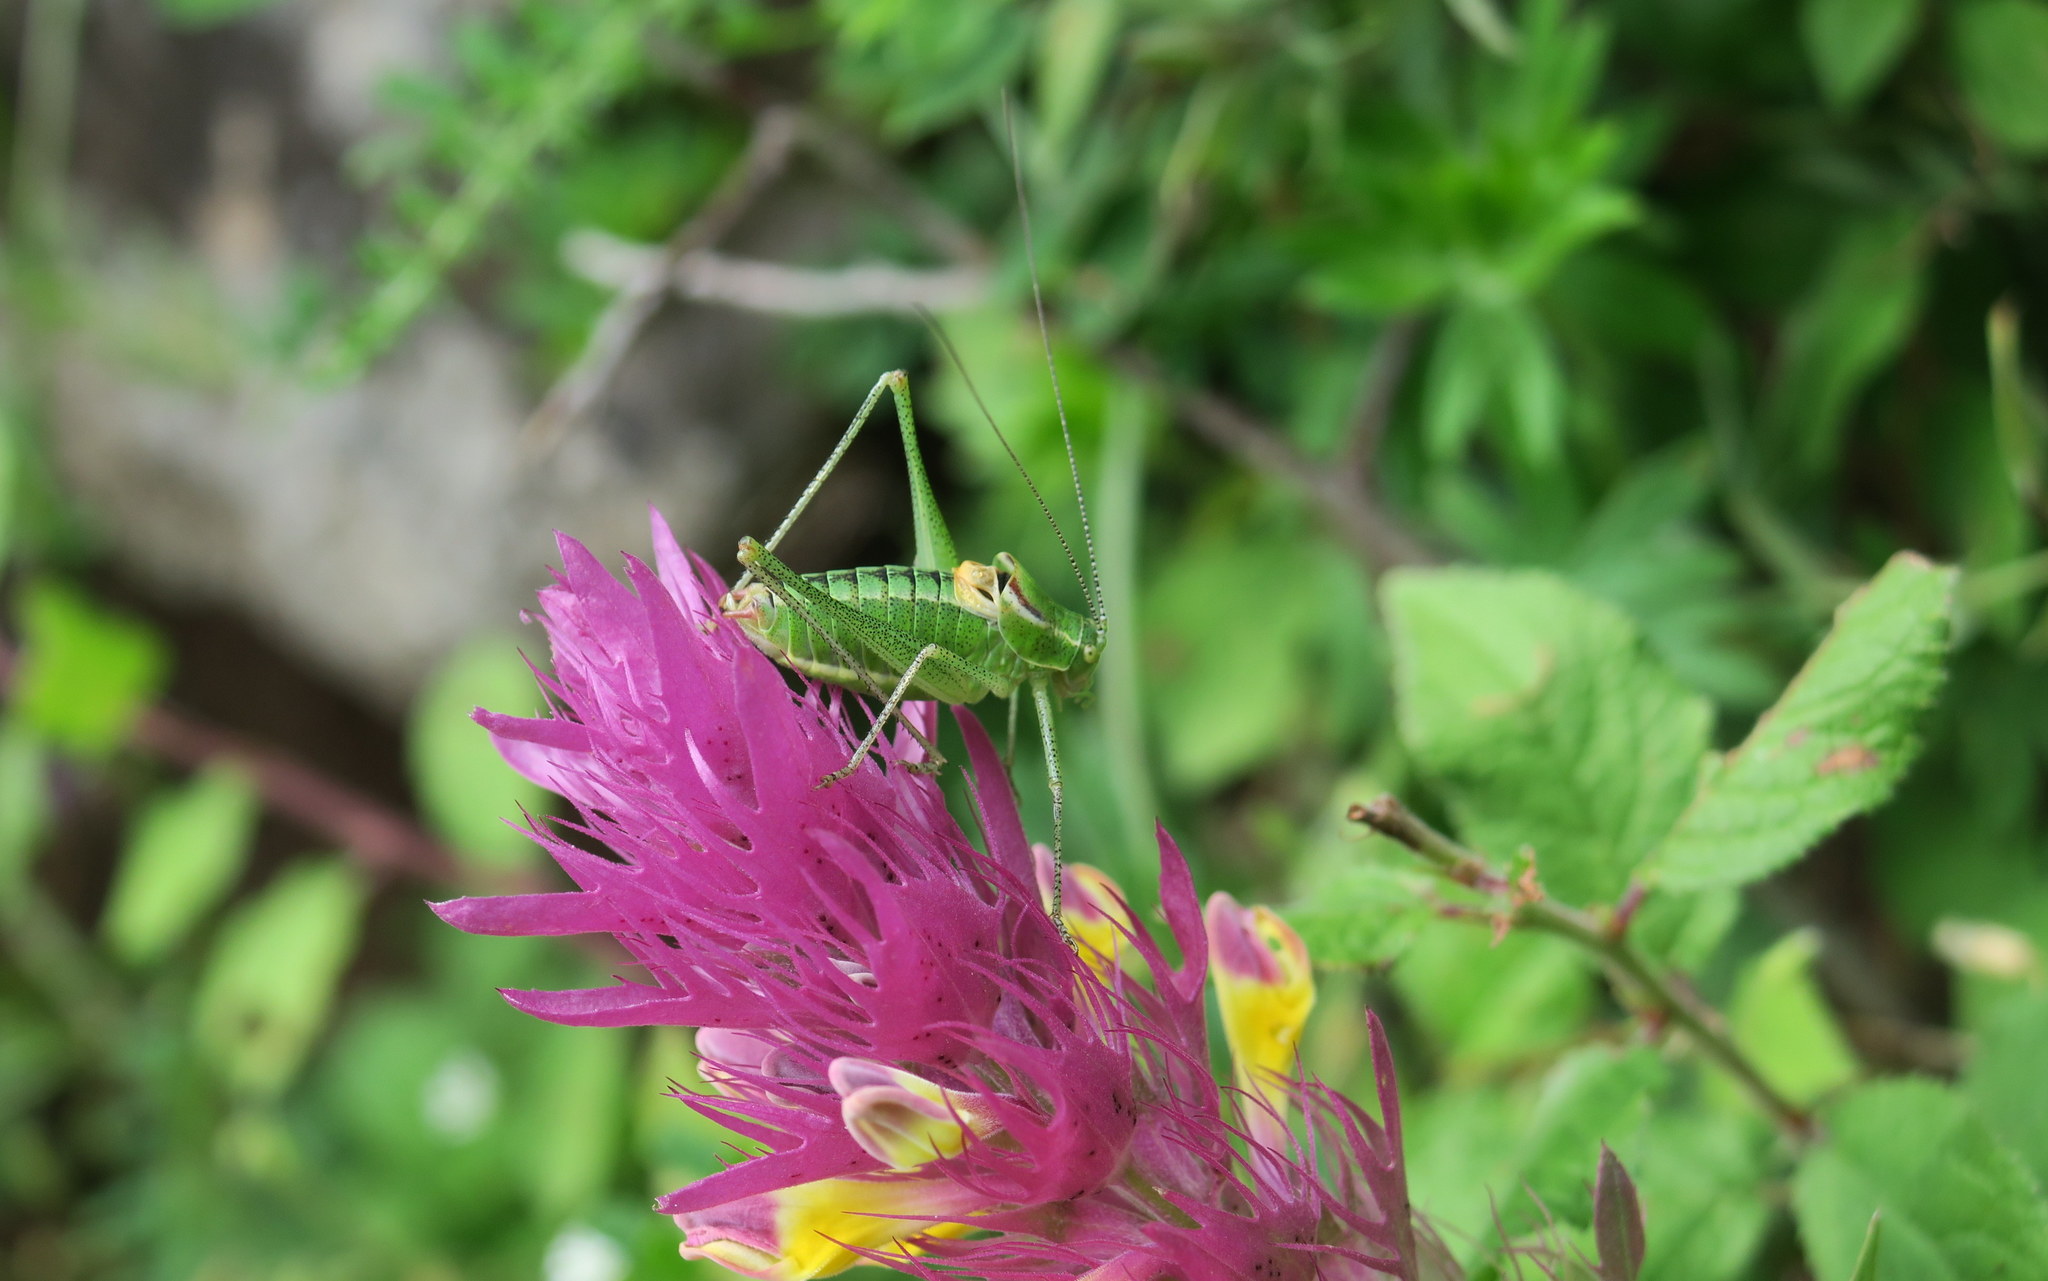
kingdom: Animalia
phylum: Arthropoda
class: Insecta
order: Orthoptera
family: Tettigoniidae
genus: Poecilimon
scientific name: Poecilimon orbelicus
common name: Orbelicos bright bush-cricket
